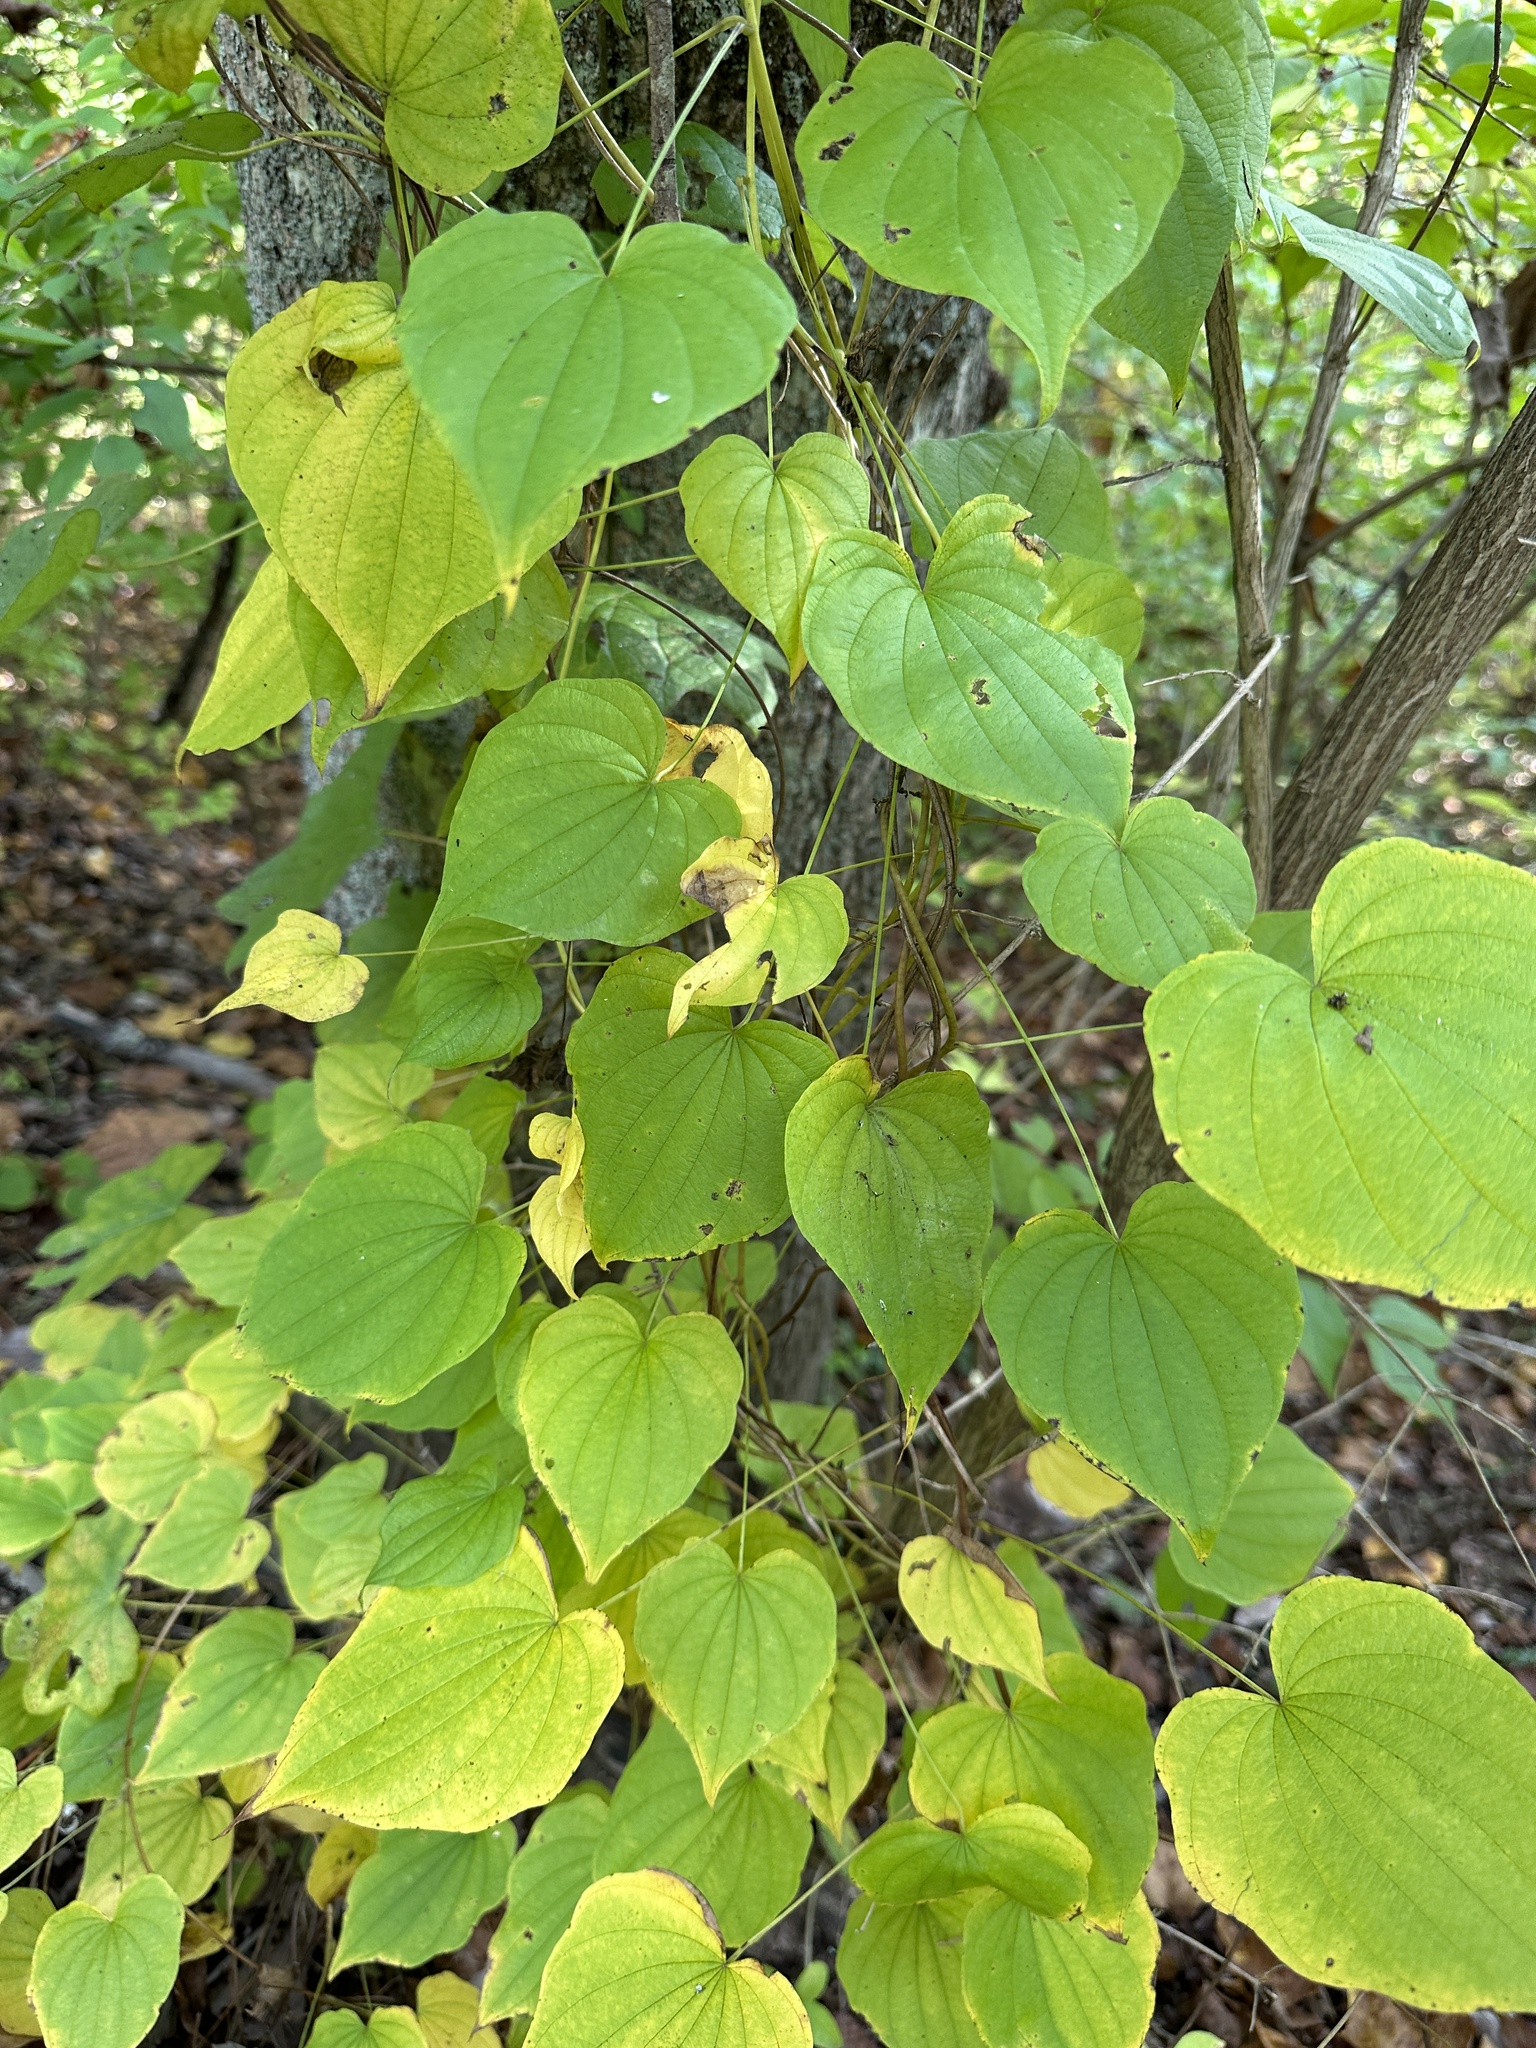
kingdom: Plantae
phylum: Tracheophyta
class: Liliopsida
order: Dioscoreales
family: Dioscoreaceae
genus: Dioscorea
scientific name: Dioscorea villosa
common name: Wild yam
